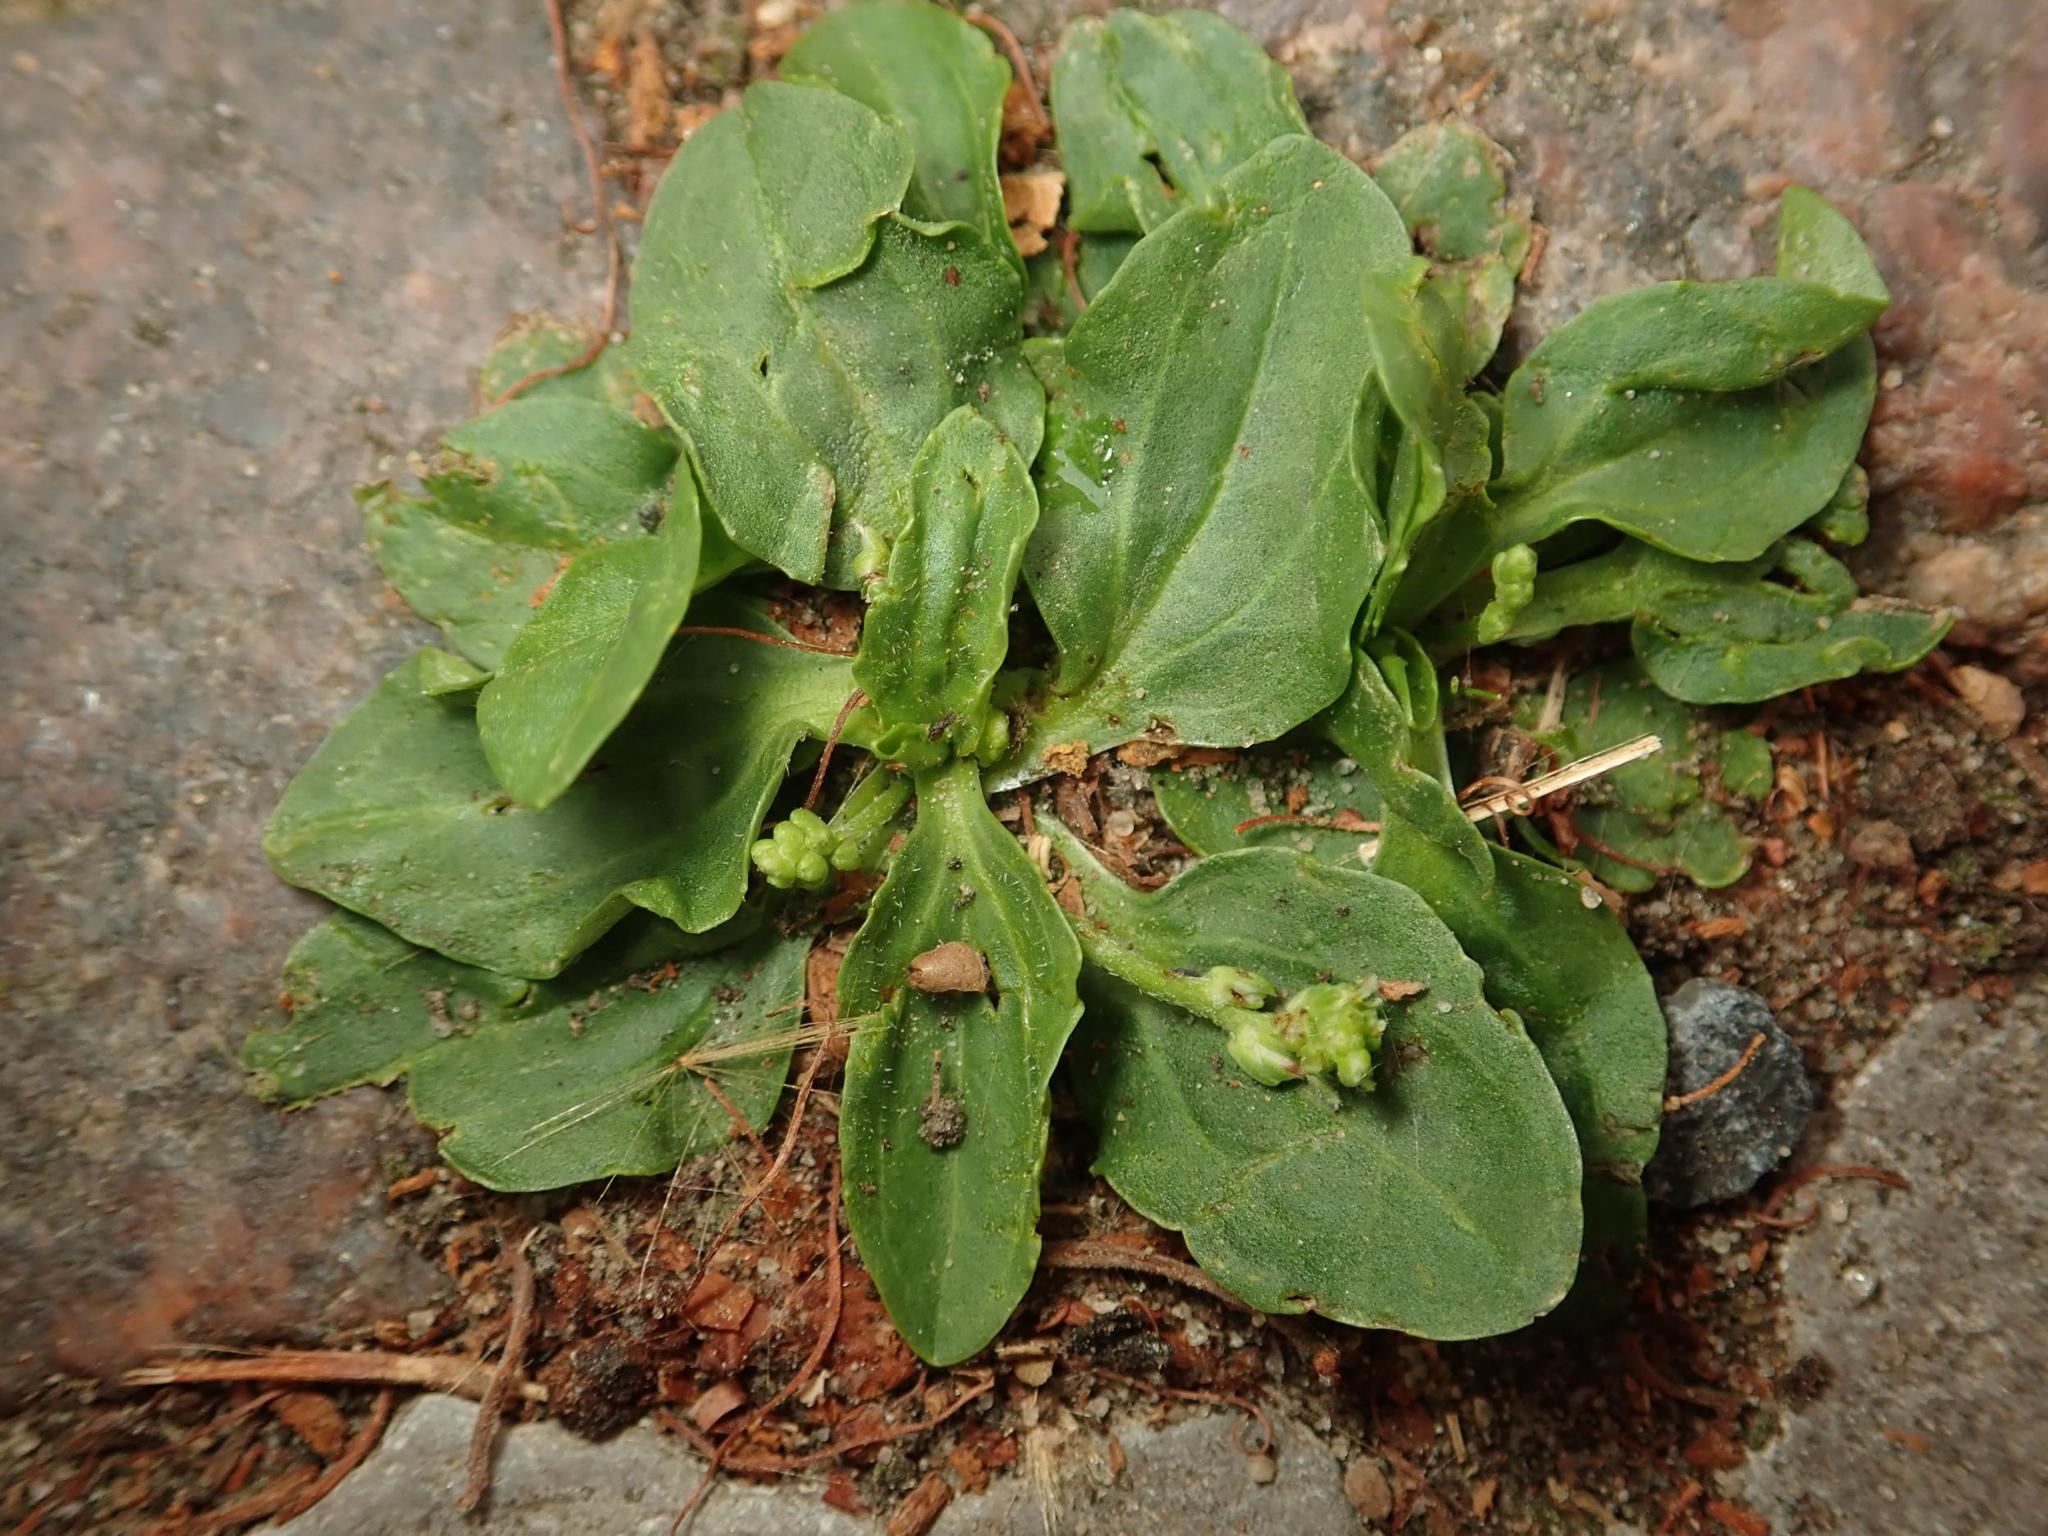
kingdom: Plantae
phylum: Tracheophyta
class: Magnoliopsida
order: Lamiales
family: Plantaginaceae
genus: Plantago
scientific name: Plantago major
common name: Common plantain
